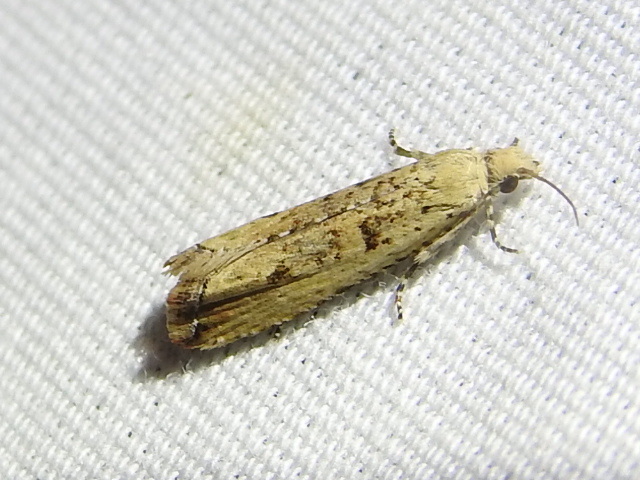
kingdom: Animalia
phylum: Arthropoda
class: Insecta
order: Lepidoptera
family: Tortricidae
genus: Bactra
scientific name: Bactra verutana
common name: Javelin moth
